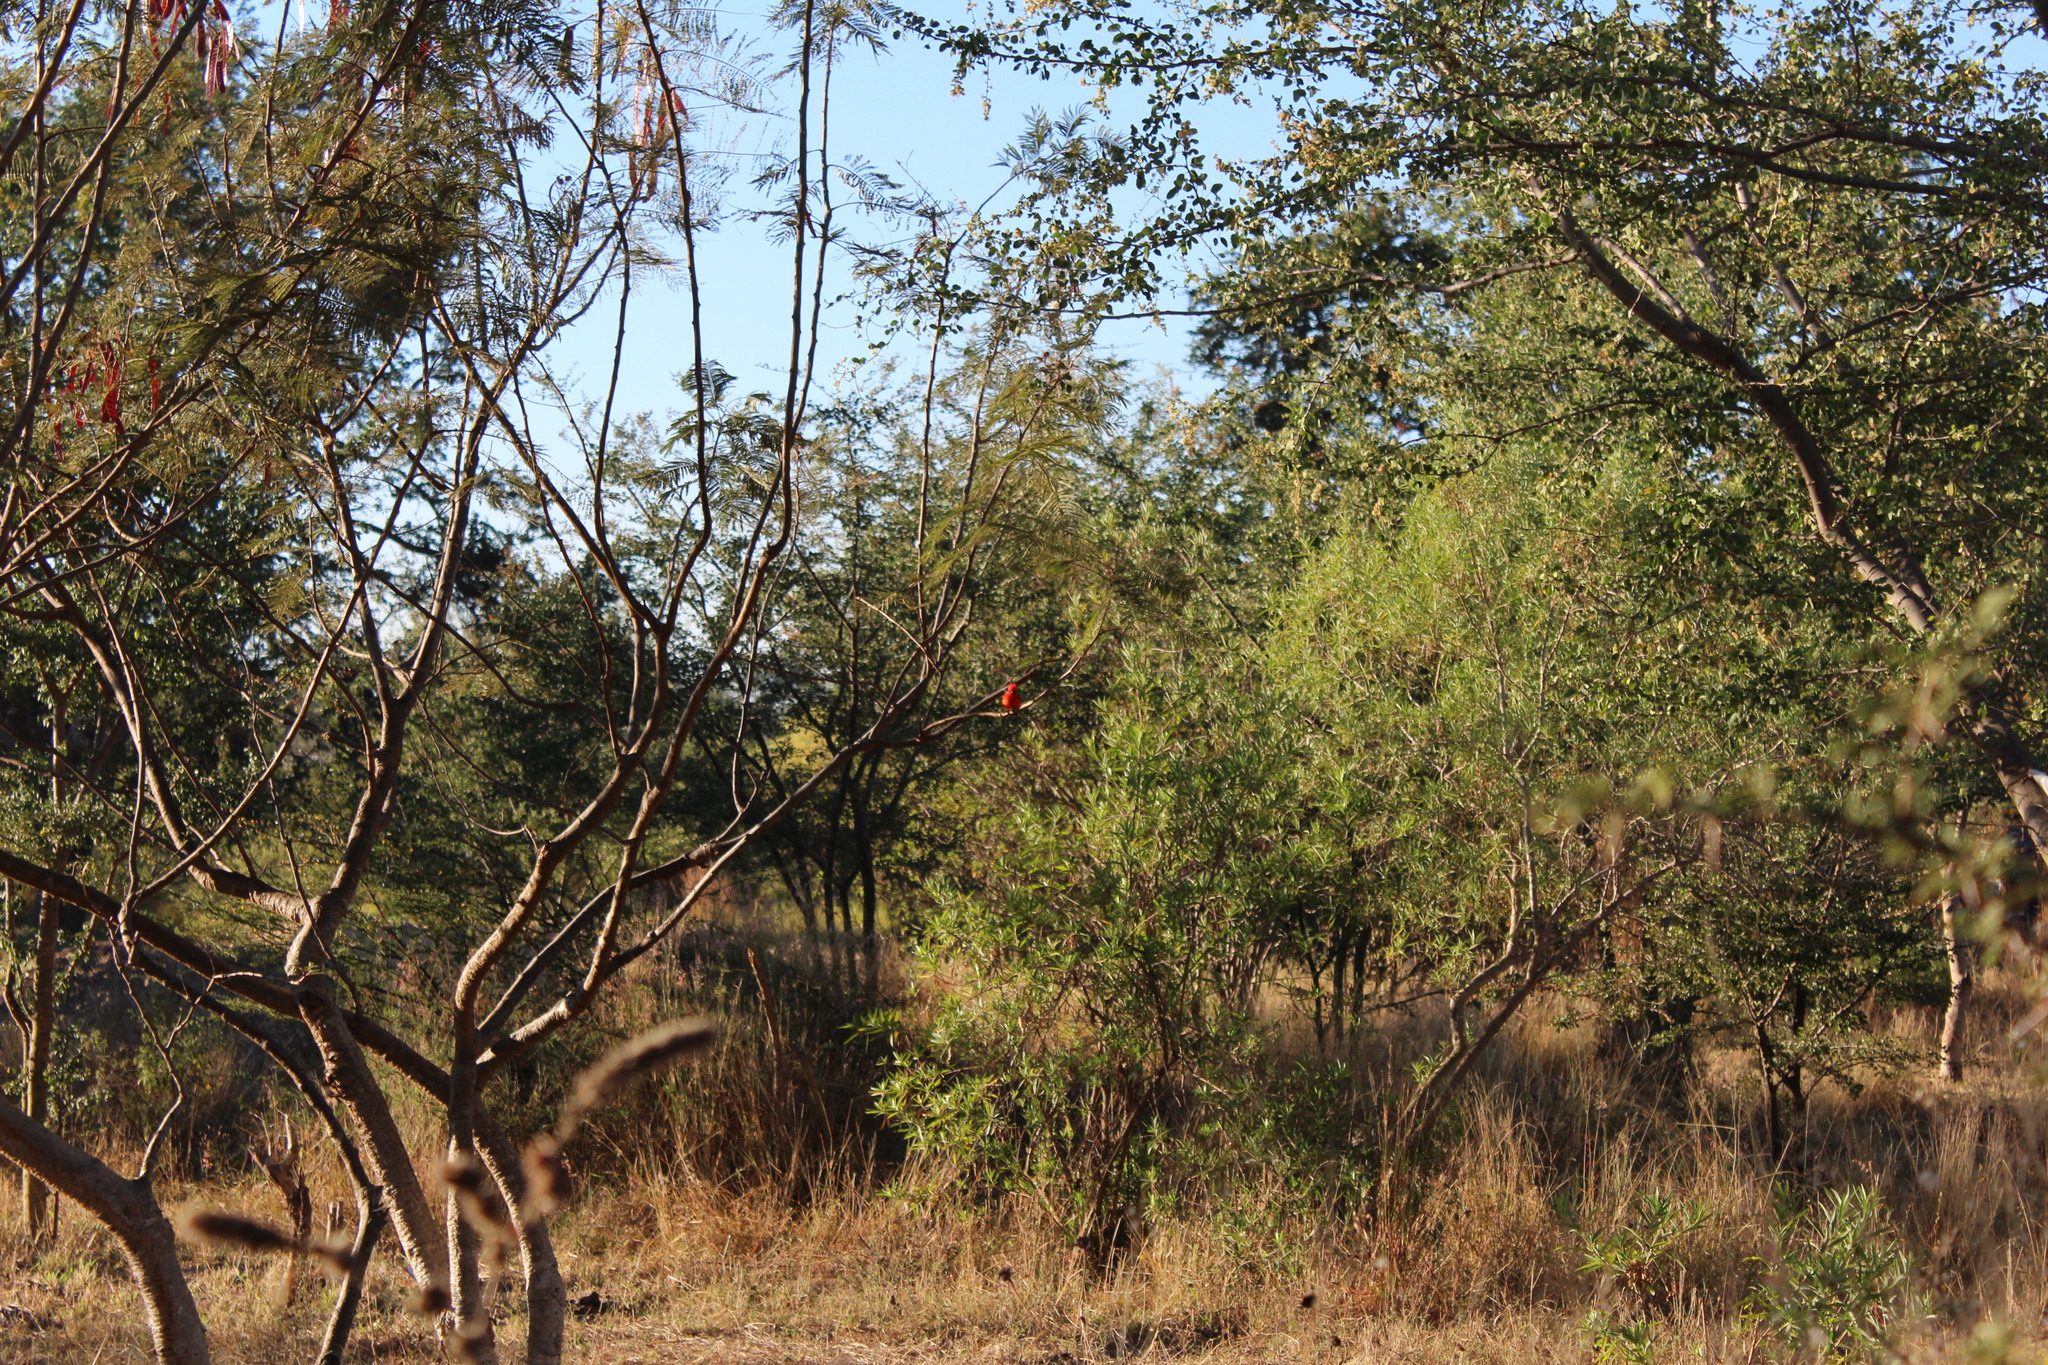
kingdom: Animalia
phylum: Chordata
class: Aves
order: Passeriformes
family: Tyrannidae
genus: Pyrocephalus
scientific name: Pyrocephalus rubinus
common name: Vermilion flycatcher
